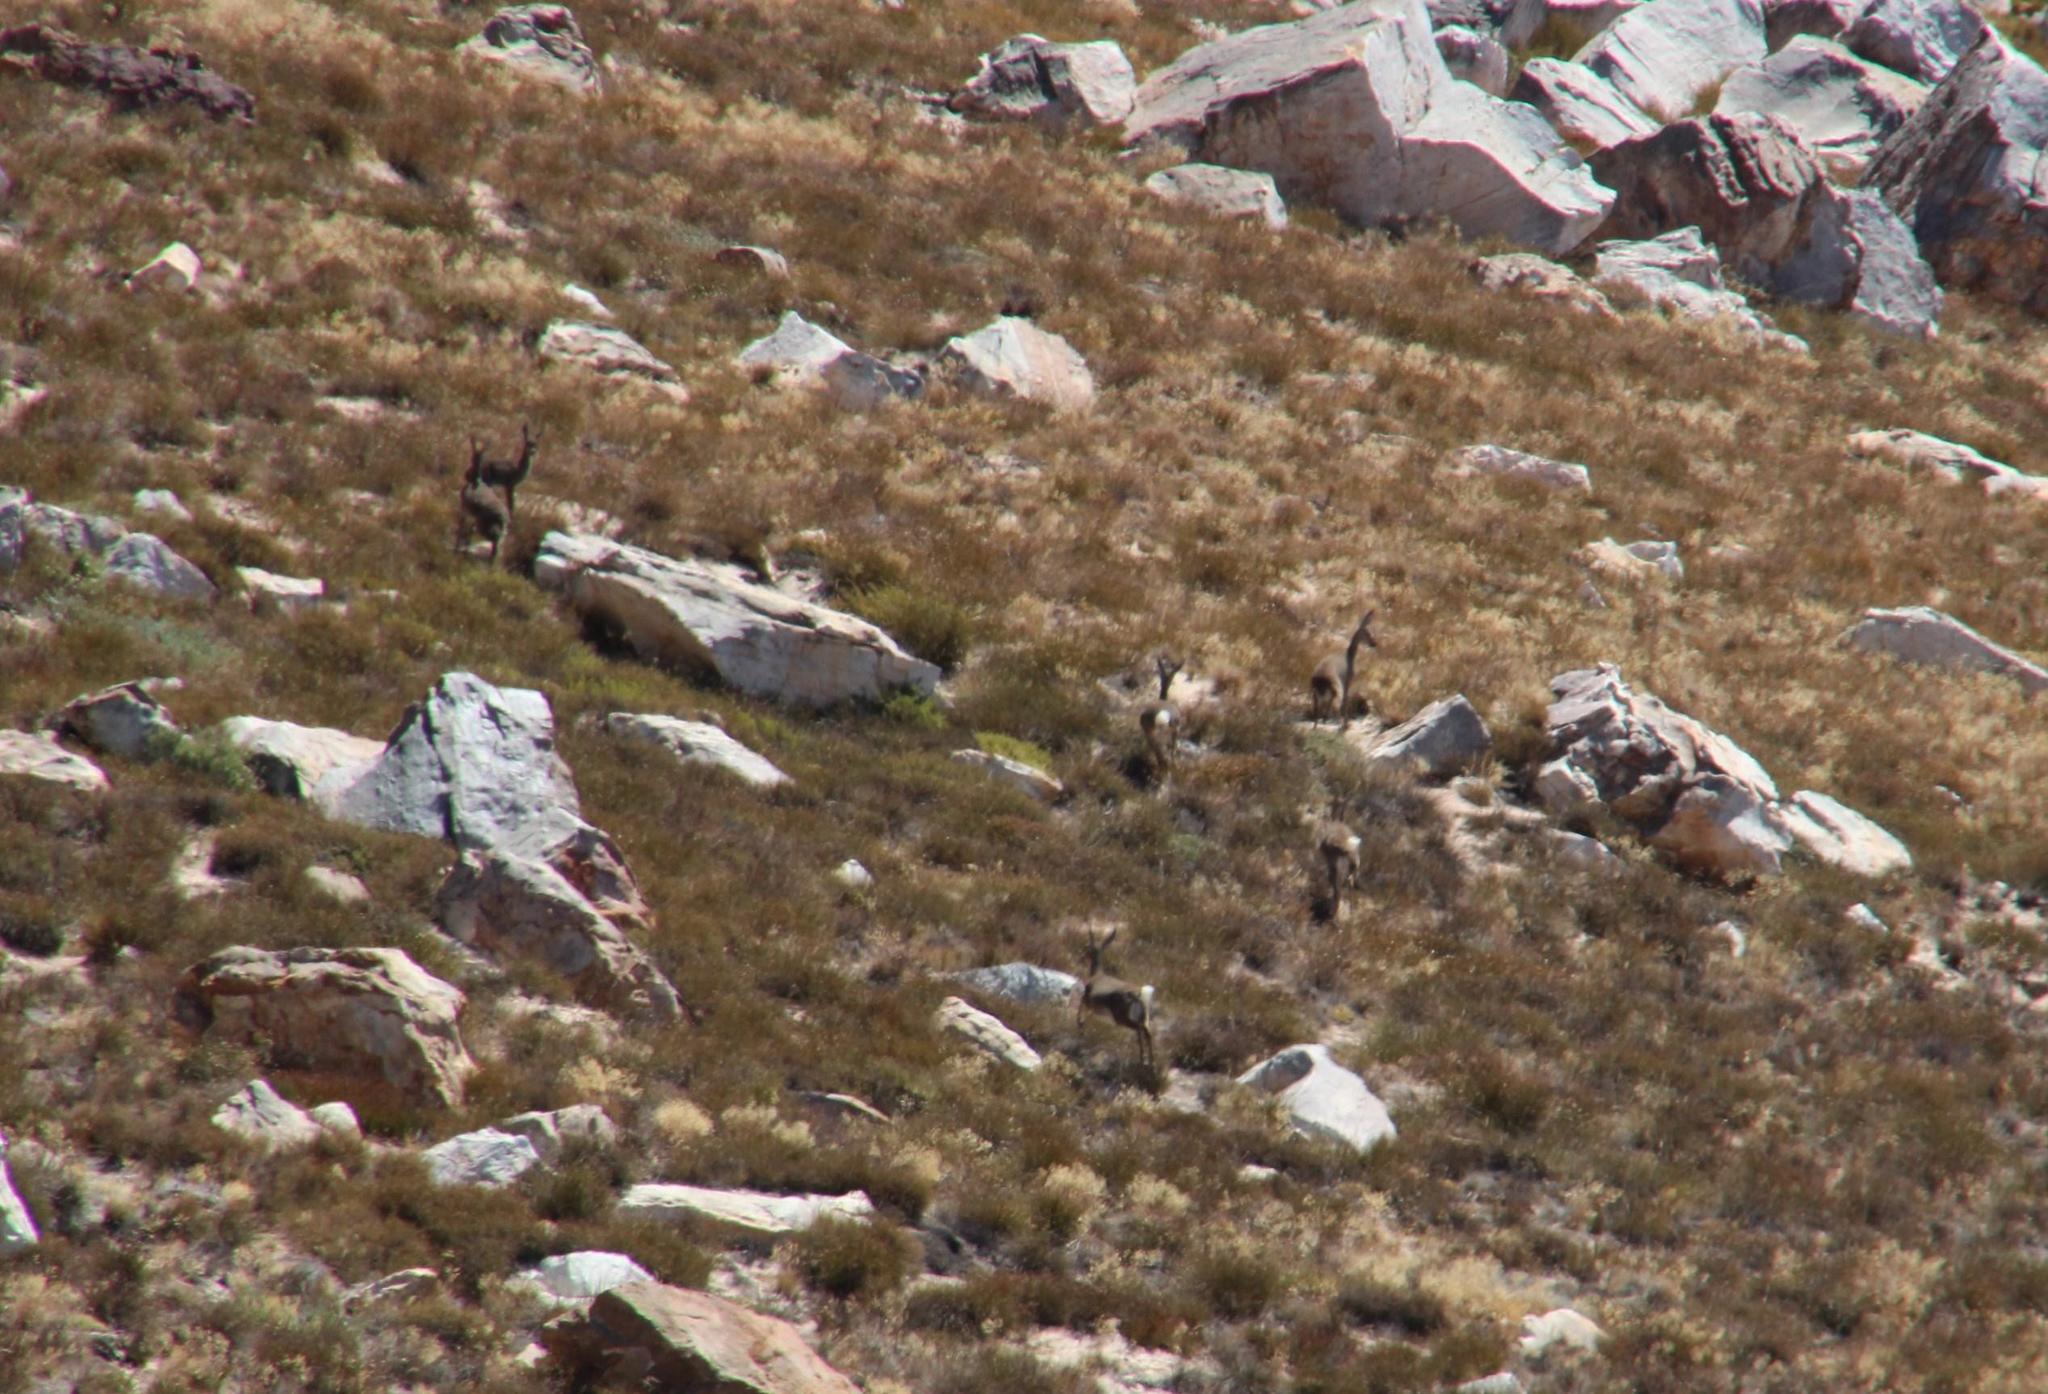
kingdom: Animalia
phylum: Chordata
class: Mammalia
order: Artiodactyla
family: Bovidae
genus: Pelea
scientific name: Pelea capreolus
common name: Common rhebok
